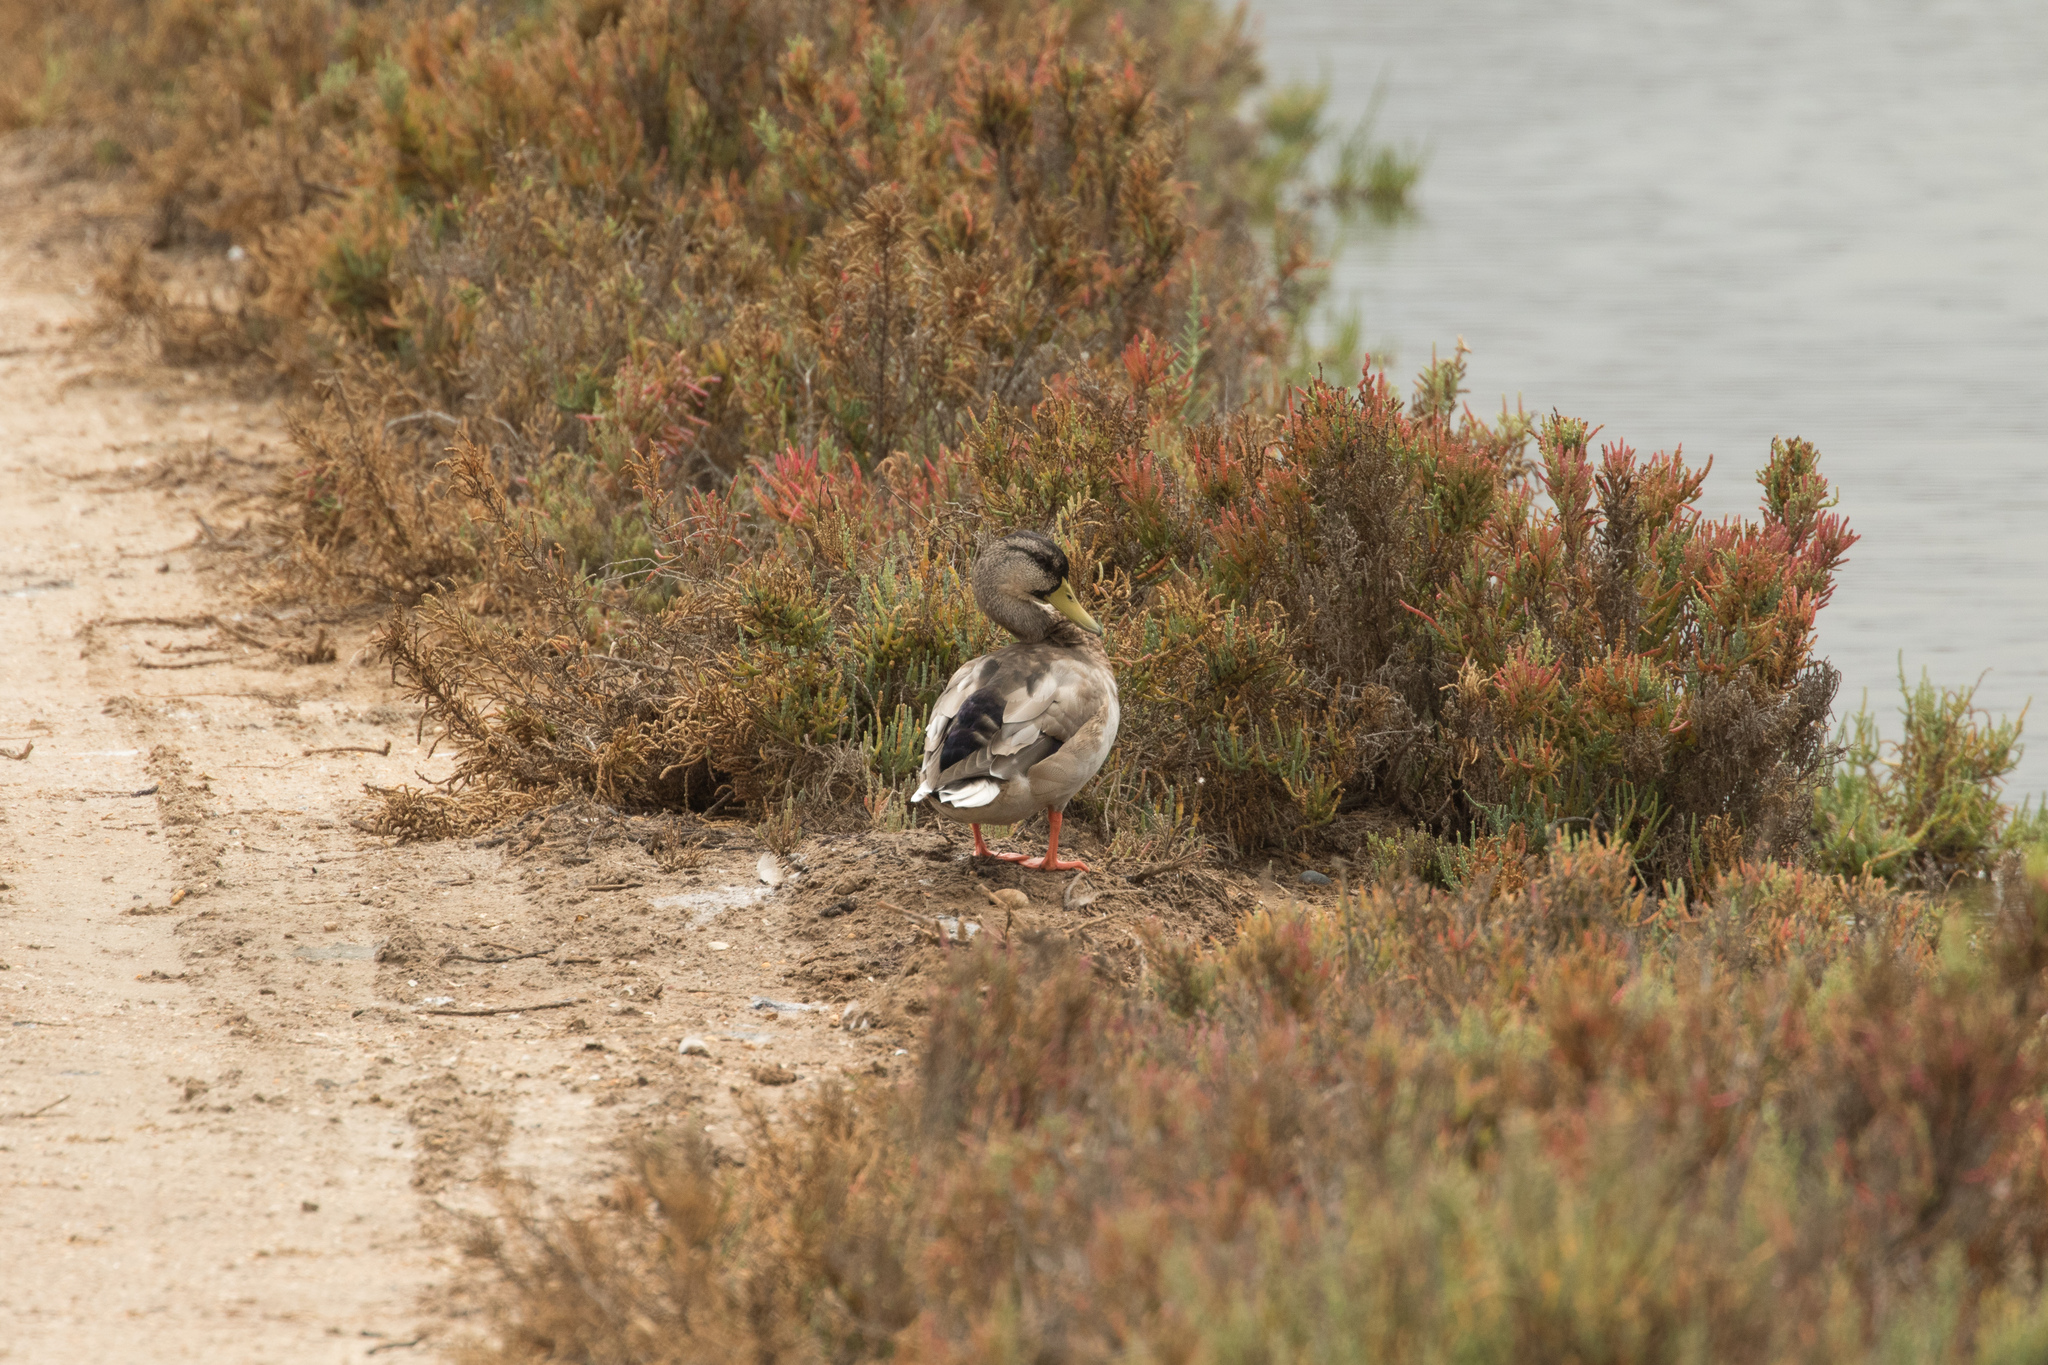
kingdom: Animalia
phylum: Chordata
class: Aves
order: Anseriformes
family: Anatidae
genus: Anas
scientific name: Anas platyrhynchos
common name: Mallard
